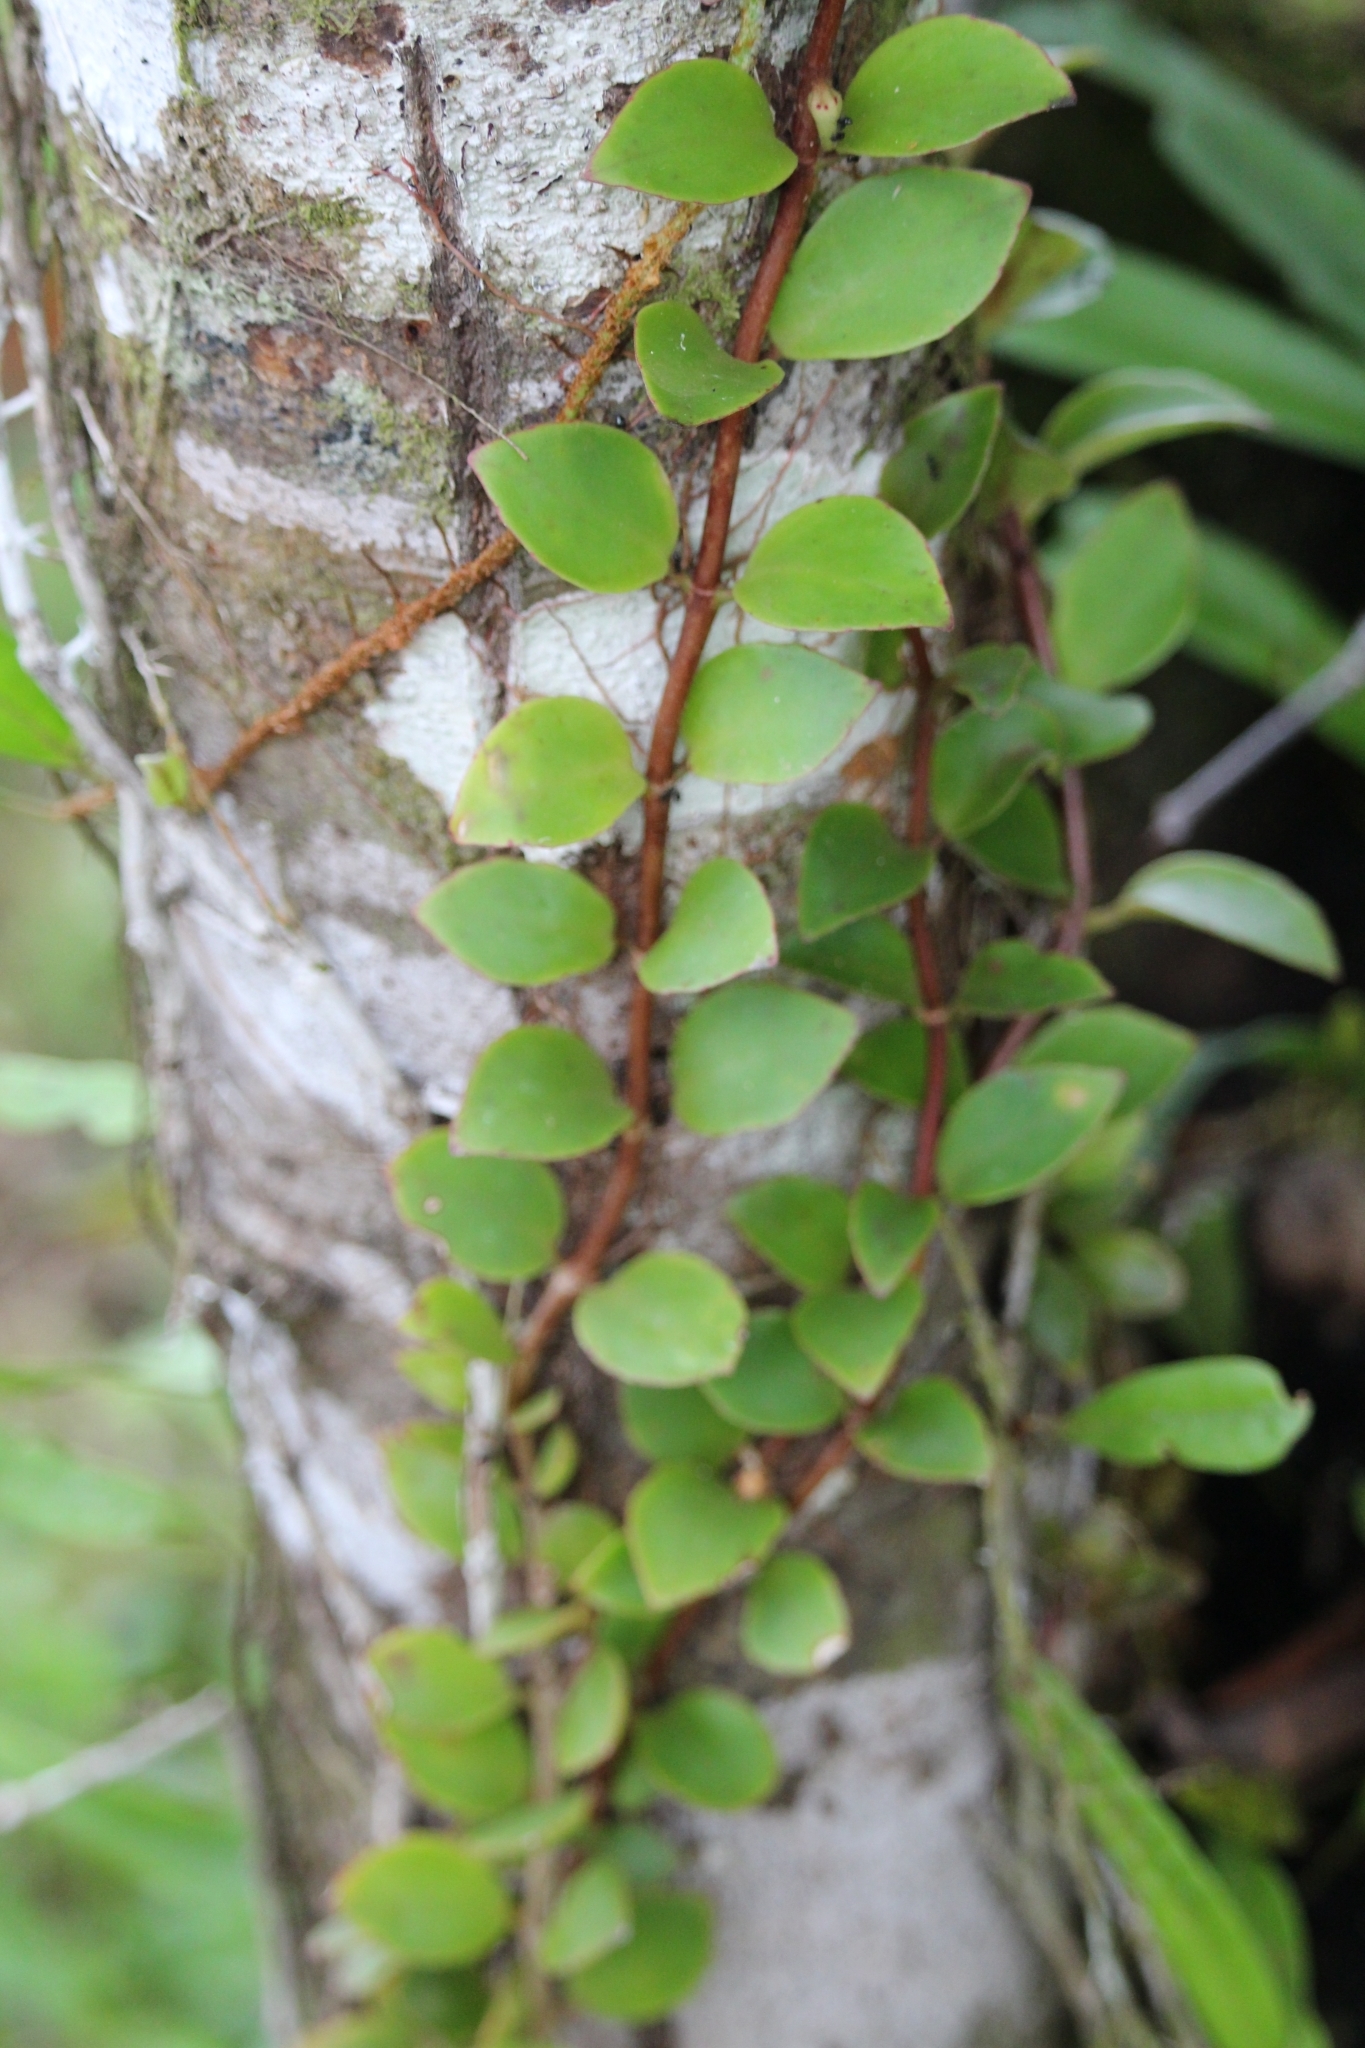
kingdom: Plantae
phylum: Tracheophyta
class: Magnoliopsida
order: Lamiales
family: Gesneriaceae
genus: Codonanthopsis
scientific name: Codonanthopsis macradenia
